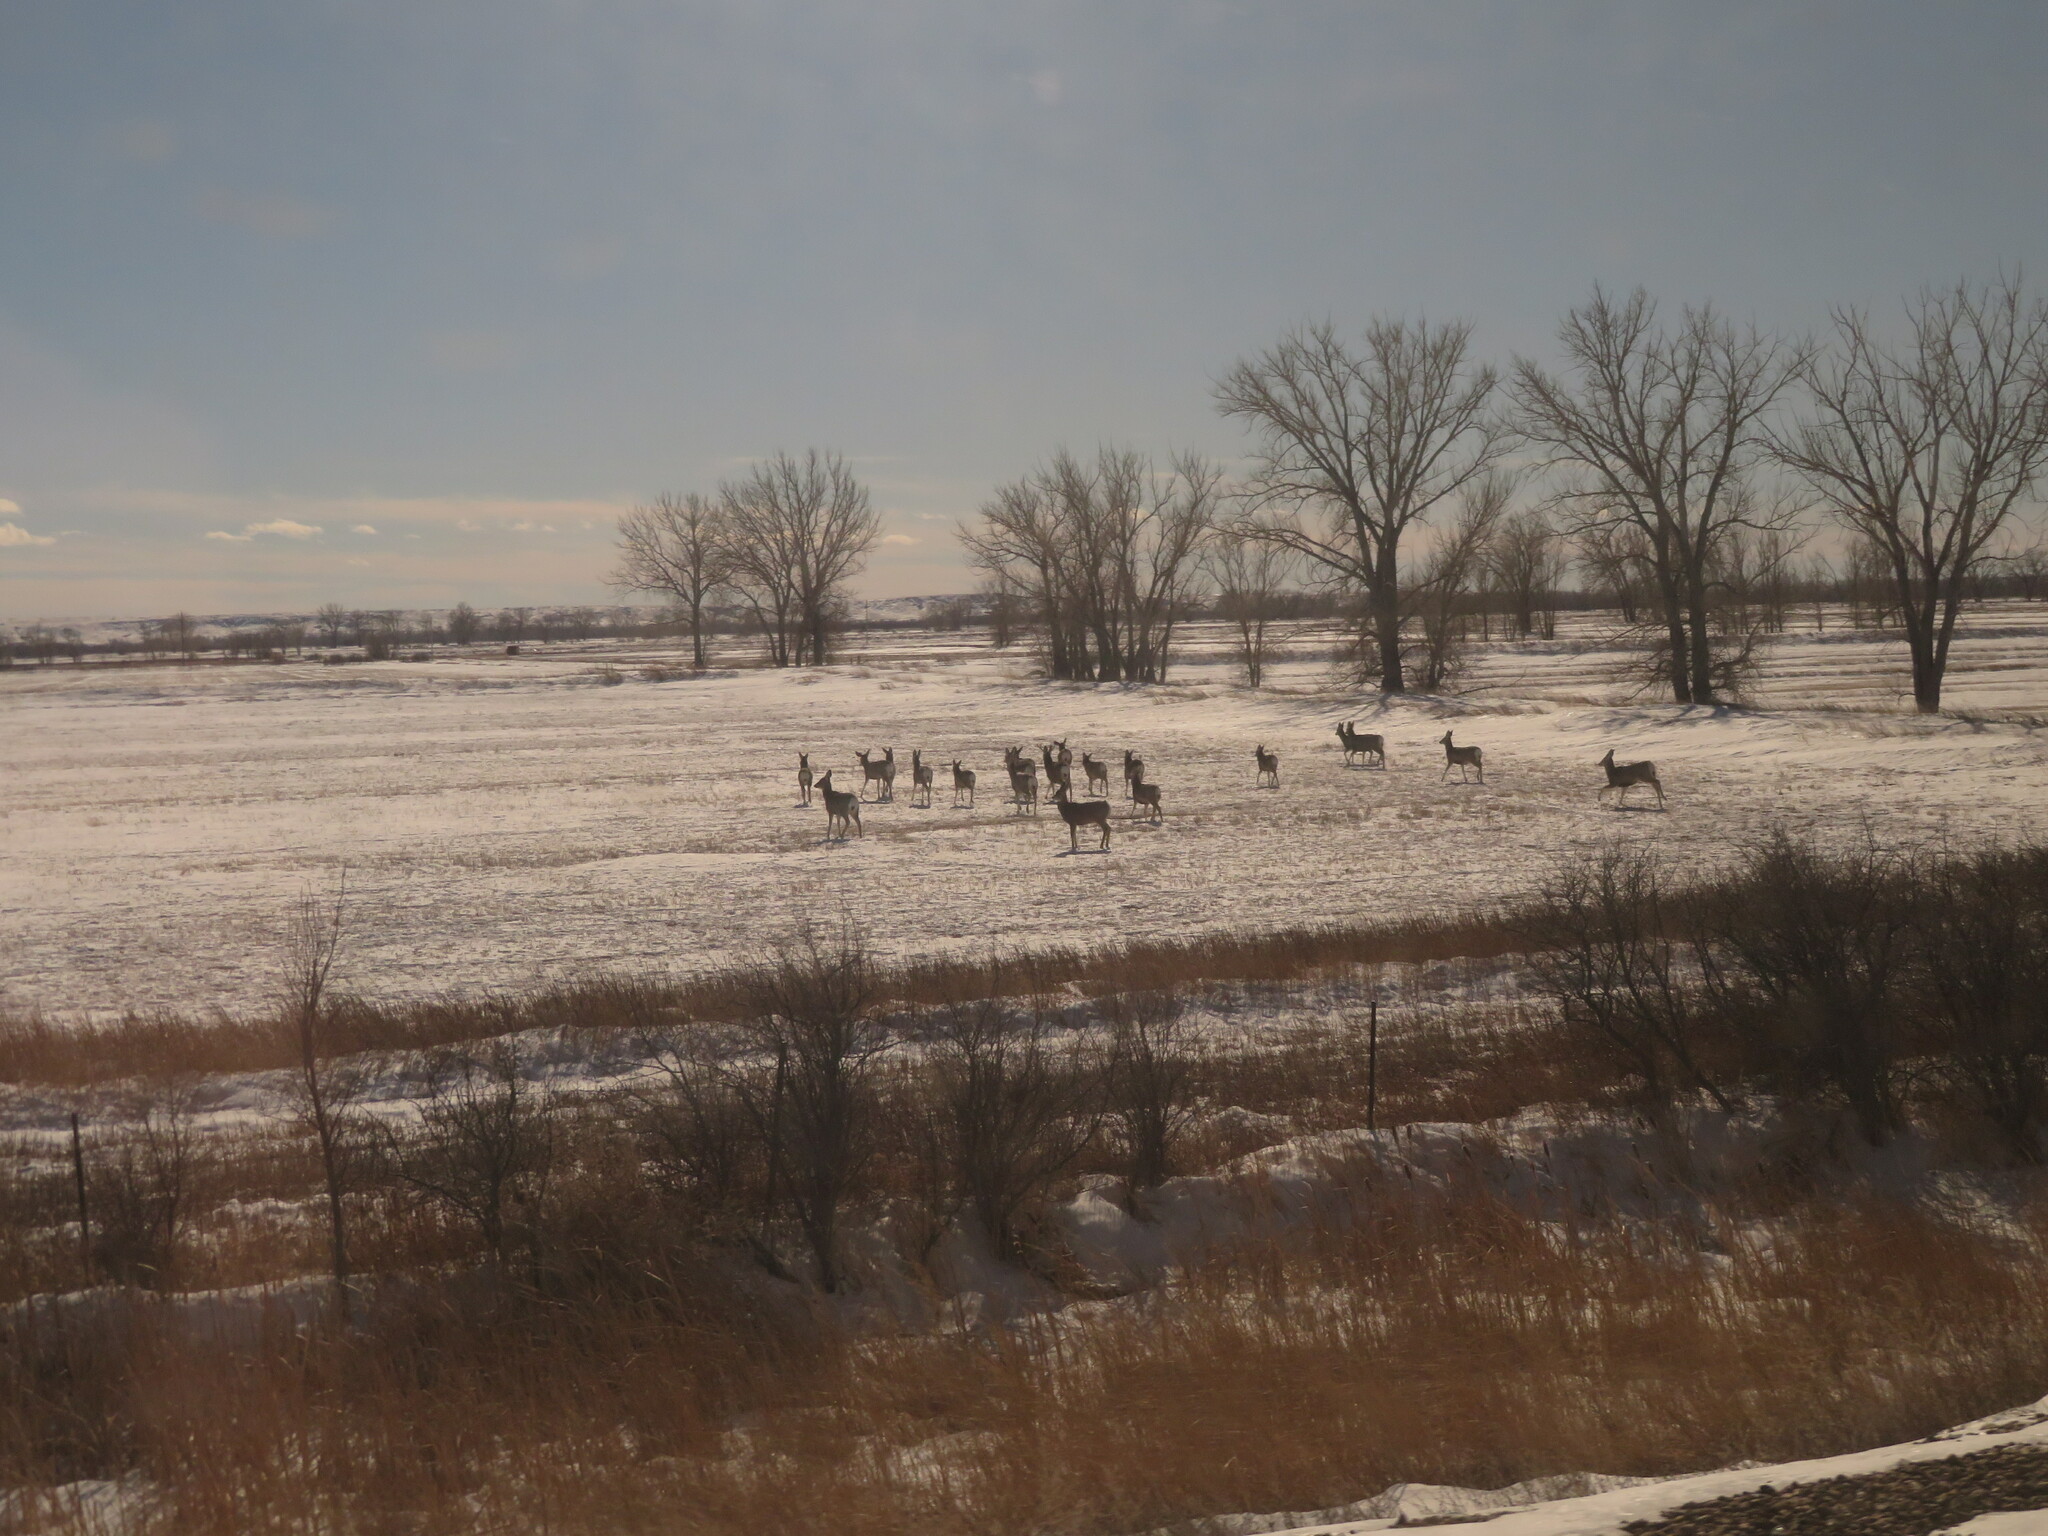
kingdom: Animalia
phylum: Chordata
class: Mammalia
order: Artiodactyla
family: Cervidae
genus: Odocoileus
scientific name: Odocoileus hemionus
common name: Mule deer
